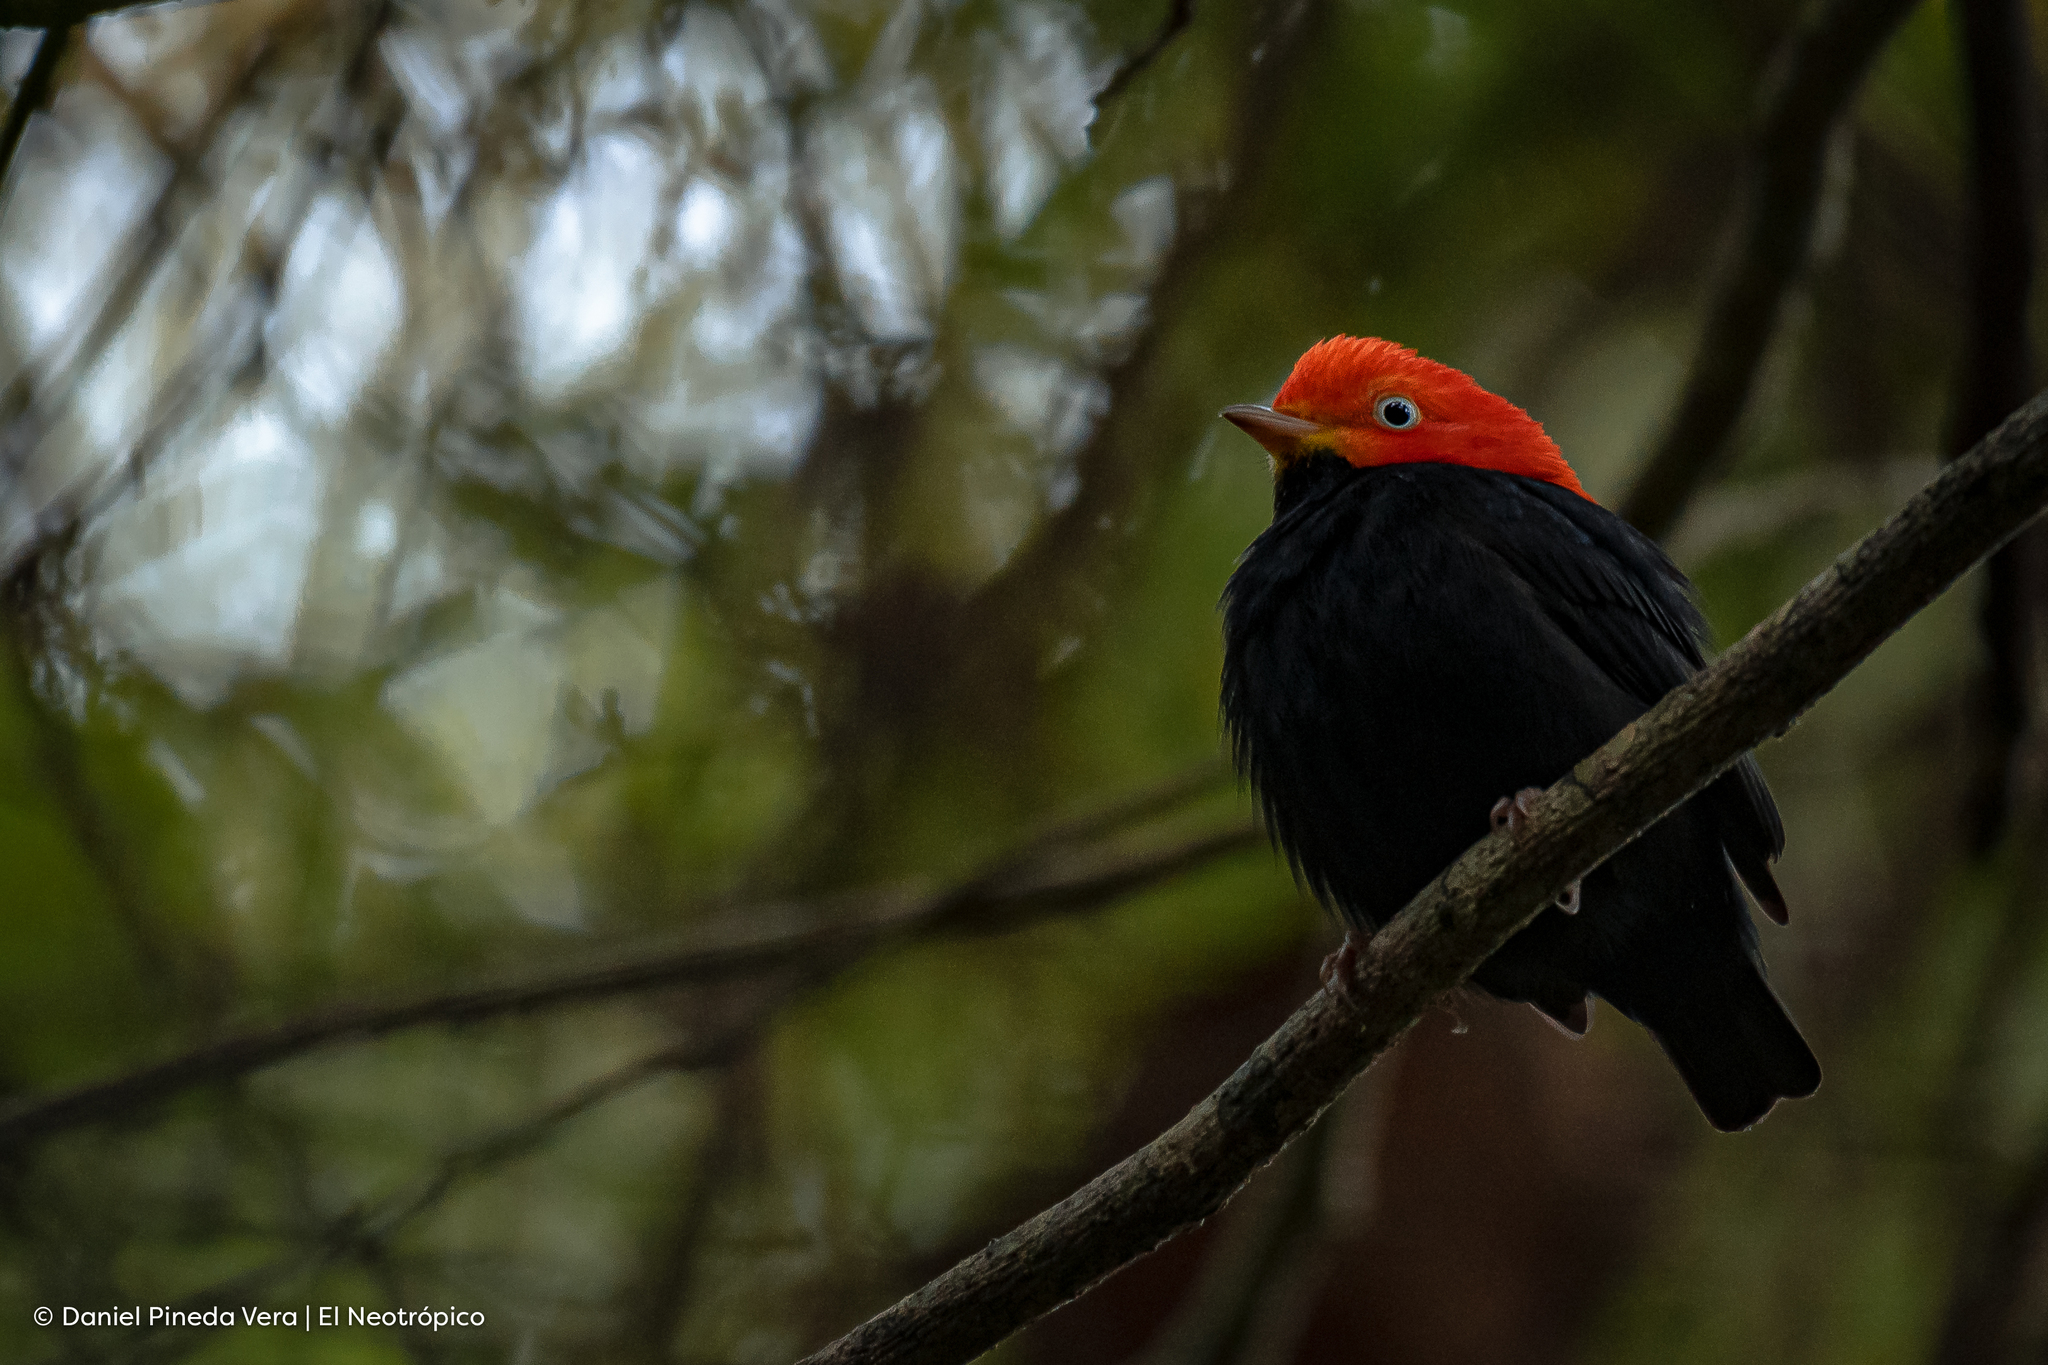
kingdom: Animalia
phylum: Chordata
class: Aves
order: Passeriformes
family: Pipridae
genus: Pipra
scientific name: Pipra mentalis
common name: Red-capped manakin
